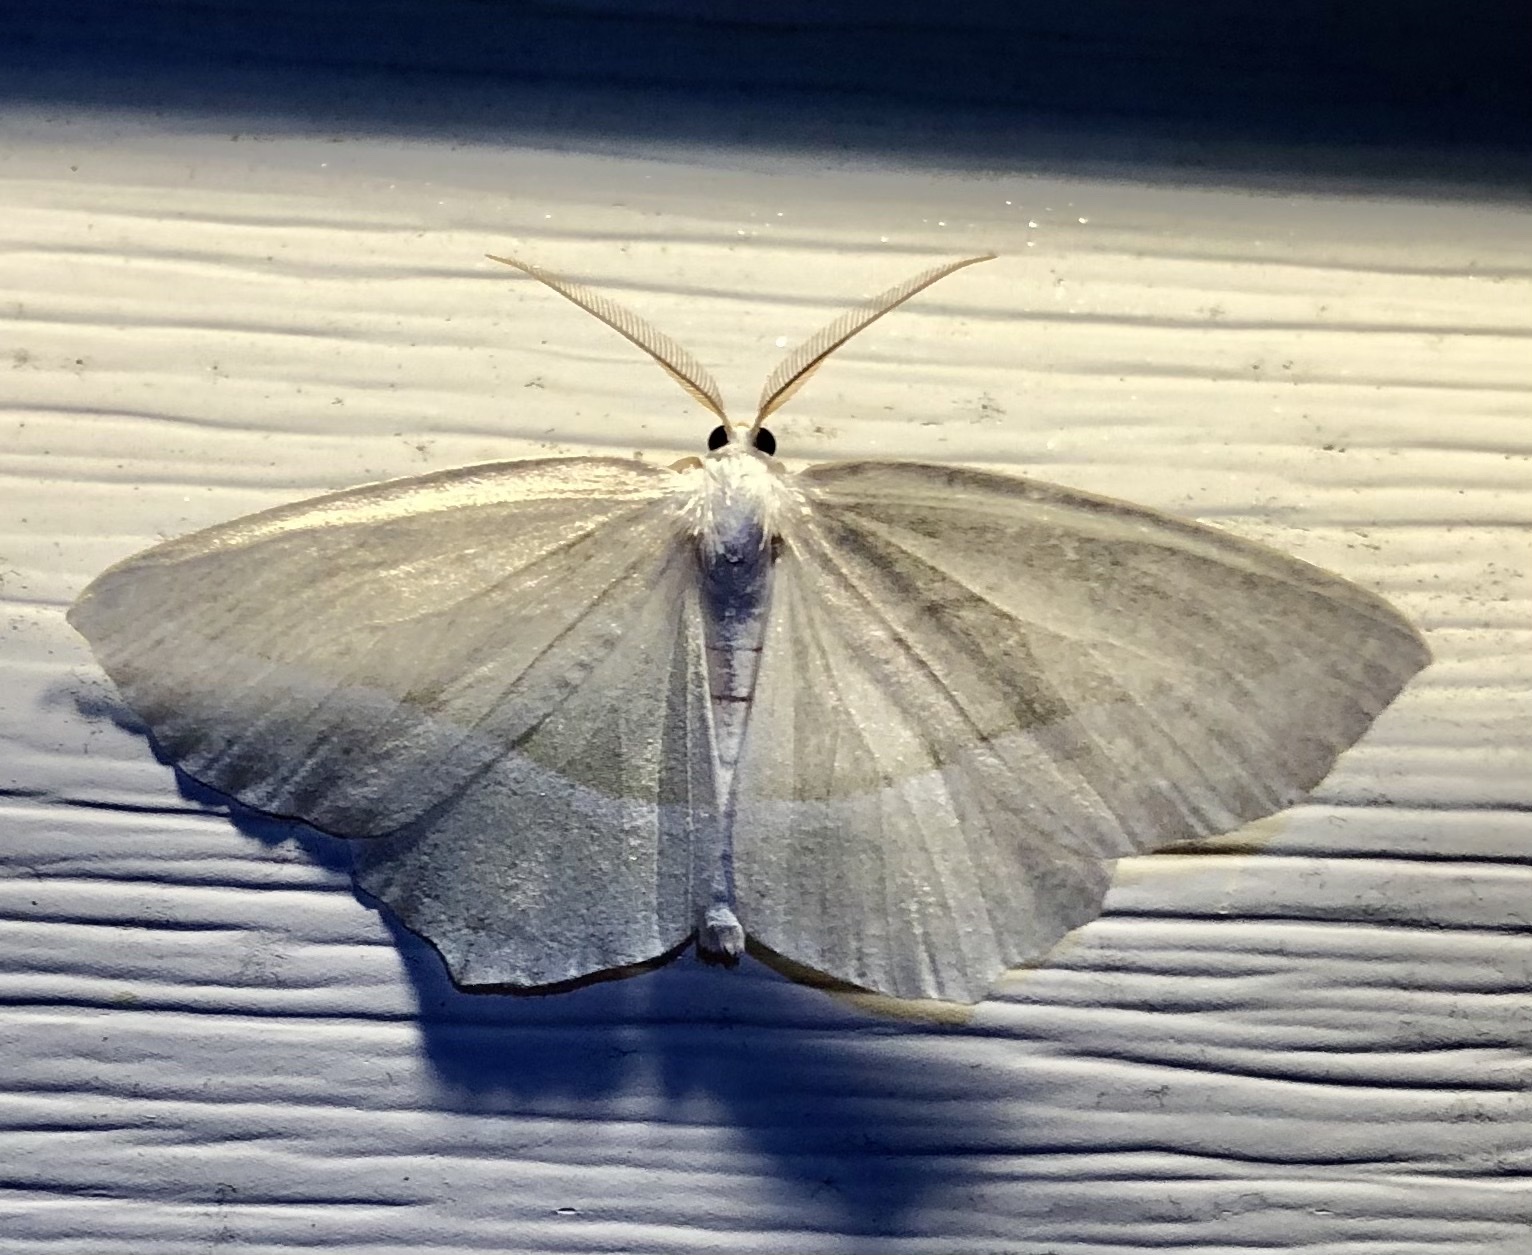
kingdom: Animalia
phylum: Arthropoda
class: Insecta
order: Lepidoptera
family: Geometridae
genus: Campaea
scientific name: Campaea perlata
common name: Fringed looper
